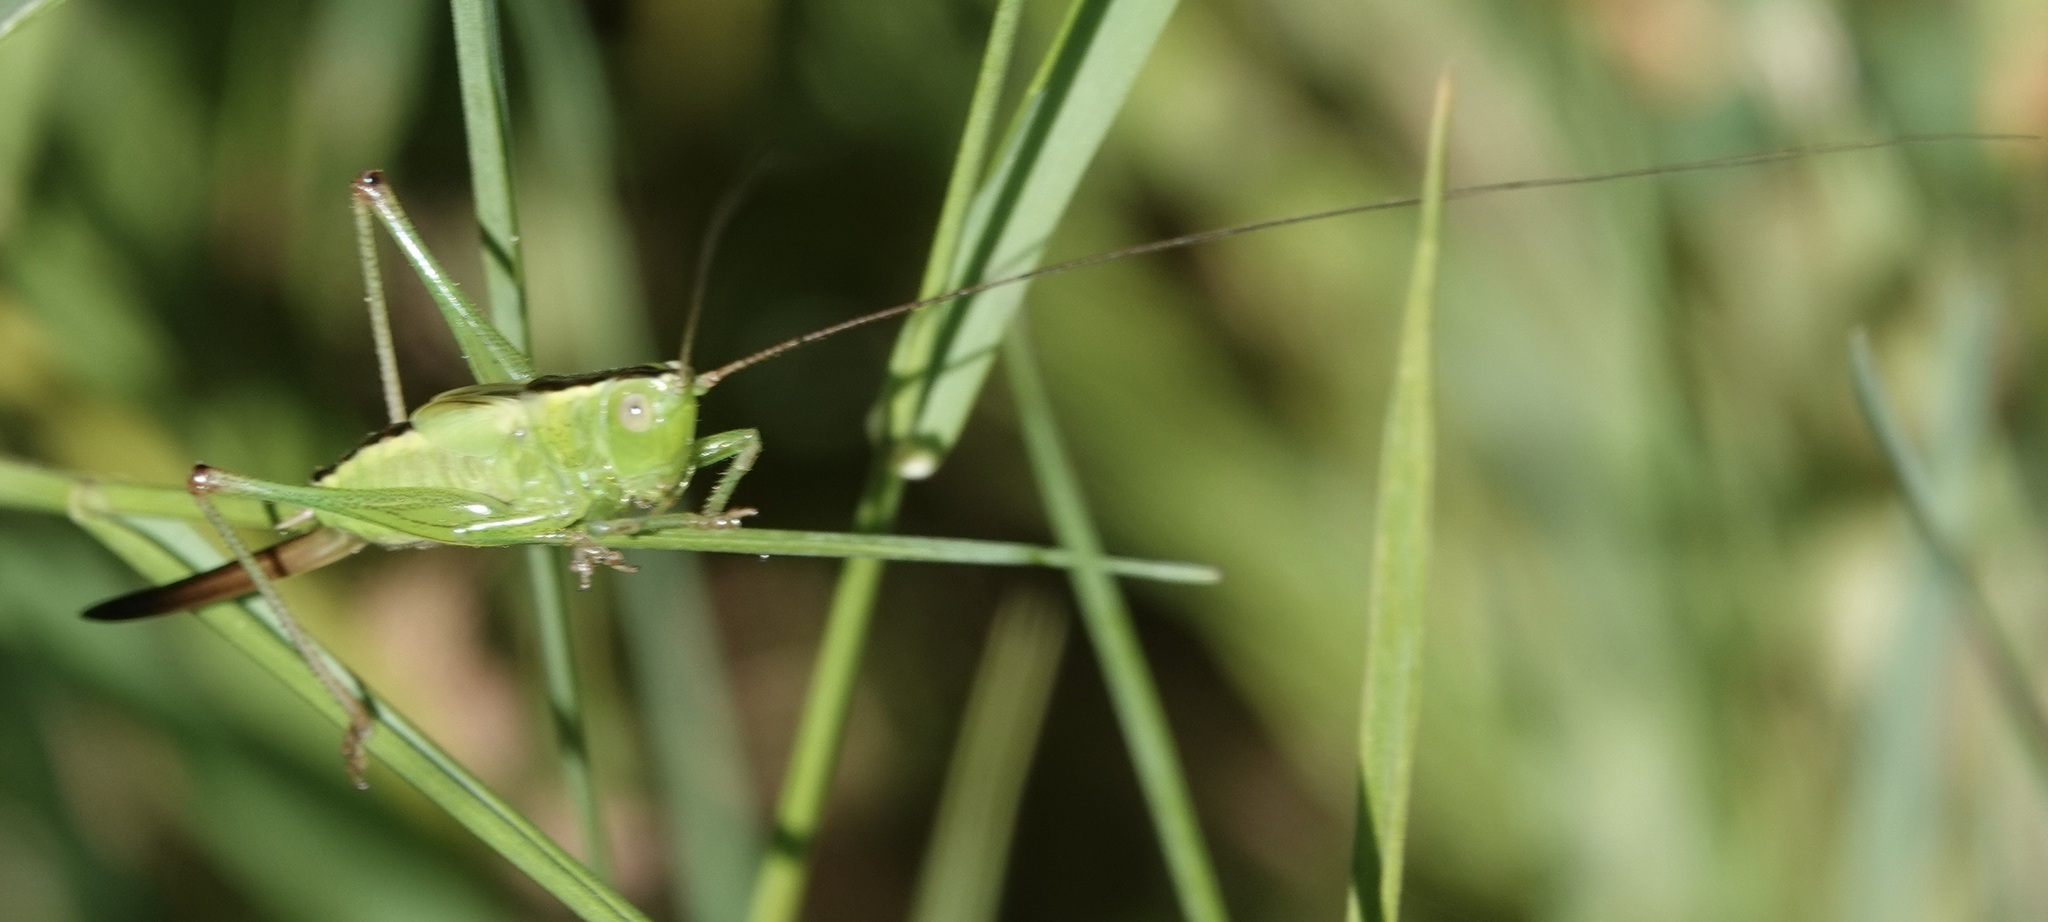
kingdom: Animalia
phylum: Arthropoda
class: Insecta
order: Orthoptera
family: Tettigoniidae
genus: Conocephalus
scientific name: Conocephalus fuscus
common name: Long-winged conehead
